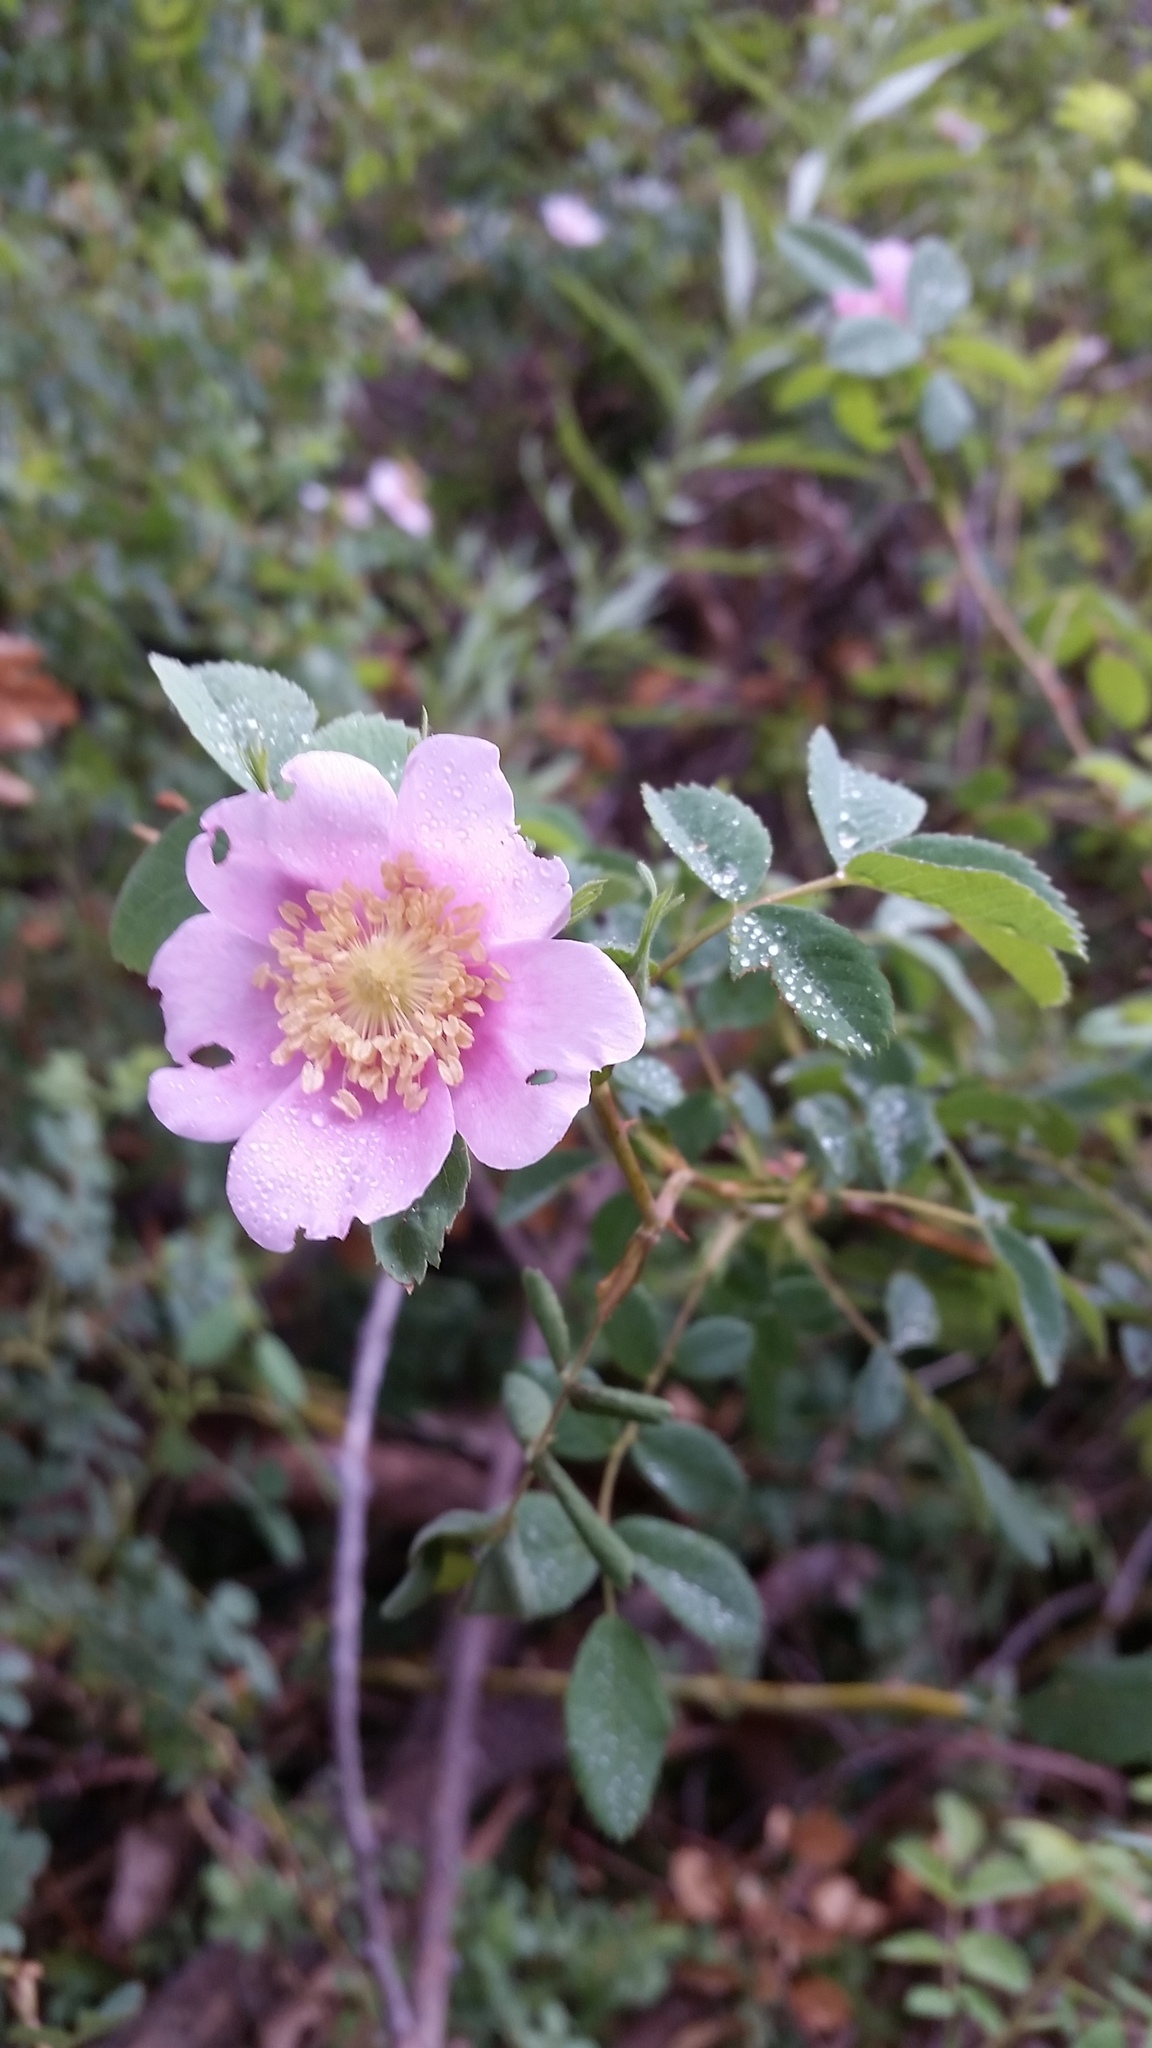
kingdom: Plantae
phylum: Tracheophyta
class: Magnoliopsida
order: Rosales
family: Rosaceae
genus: Rosa
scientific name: Rosa californica
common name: California rose
